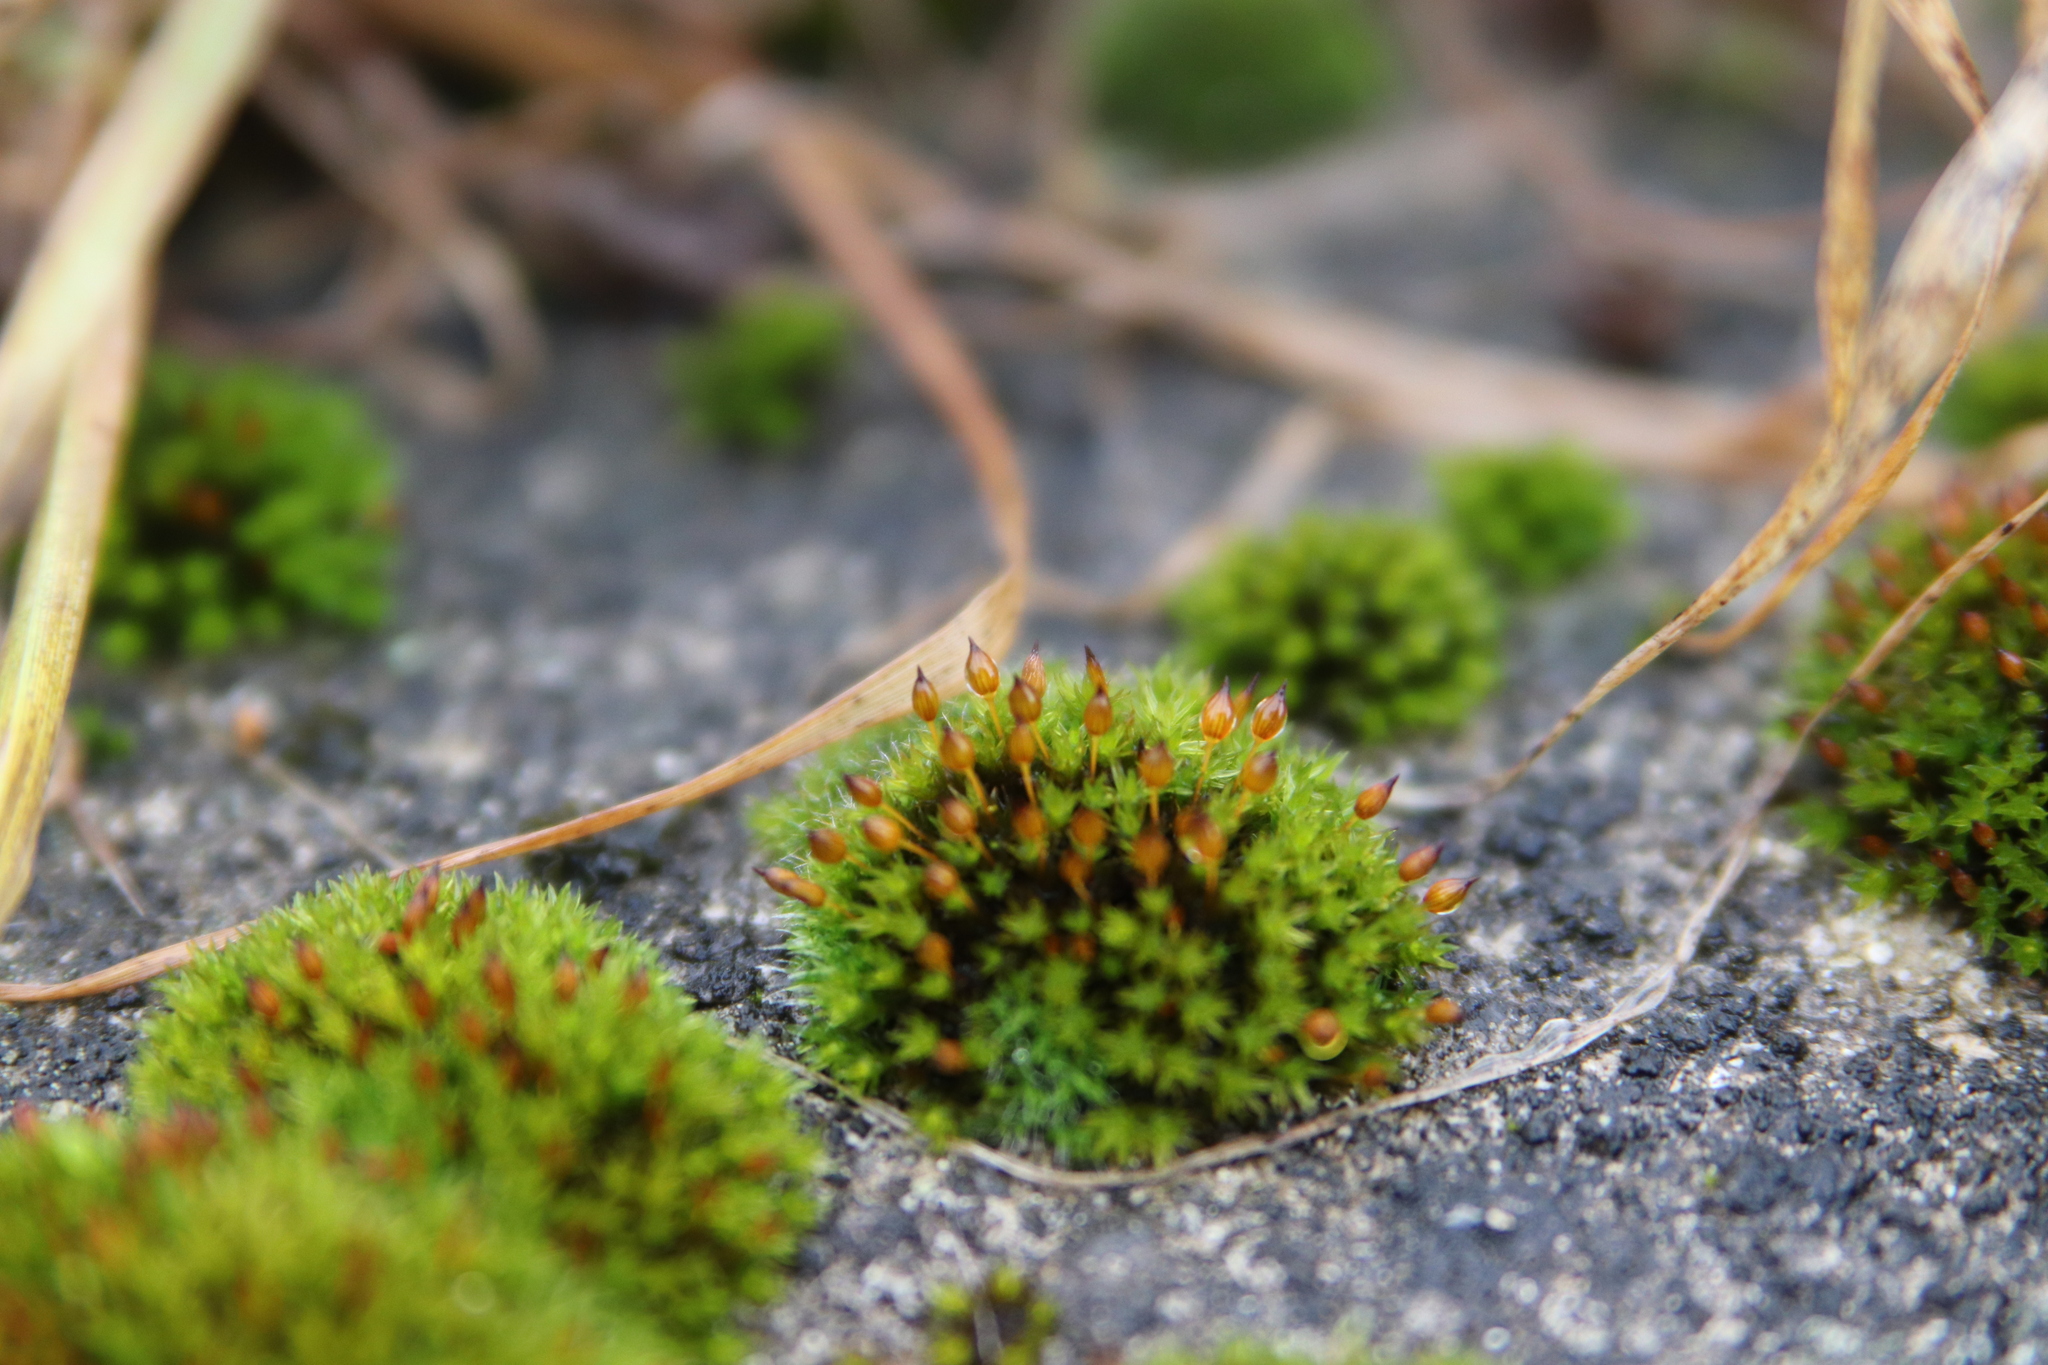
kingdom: Plantae
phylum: Bryophyta
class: Bryopsida
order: Orthotrichales
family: Orthotrichaceae
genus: Orthotrichum
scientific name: Orthotrichum anomalum
